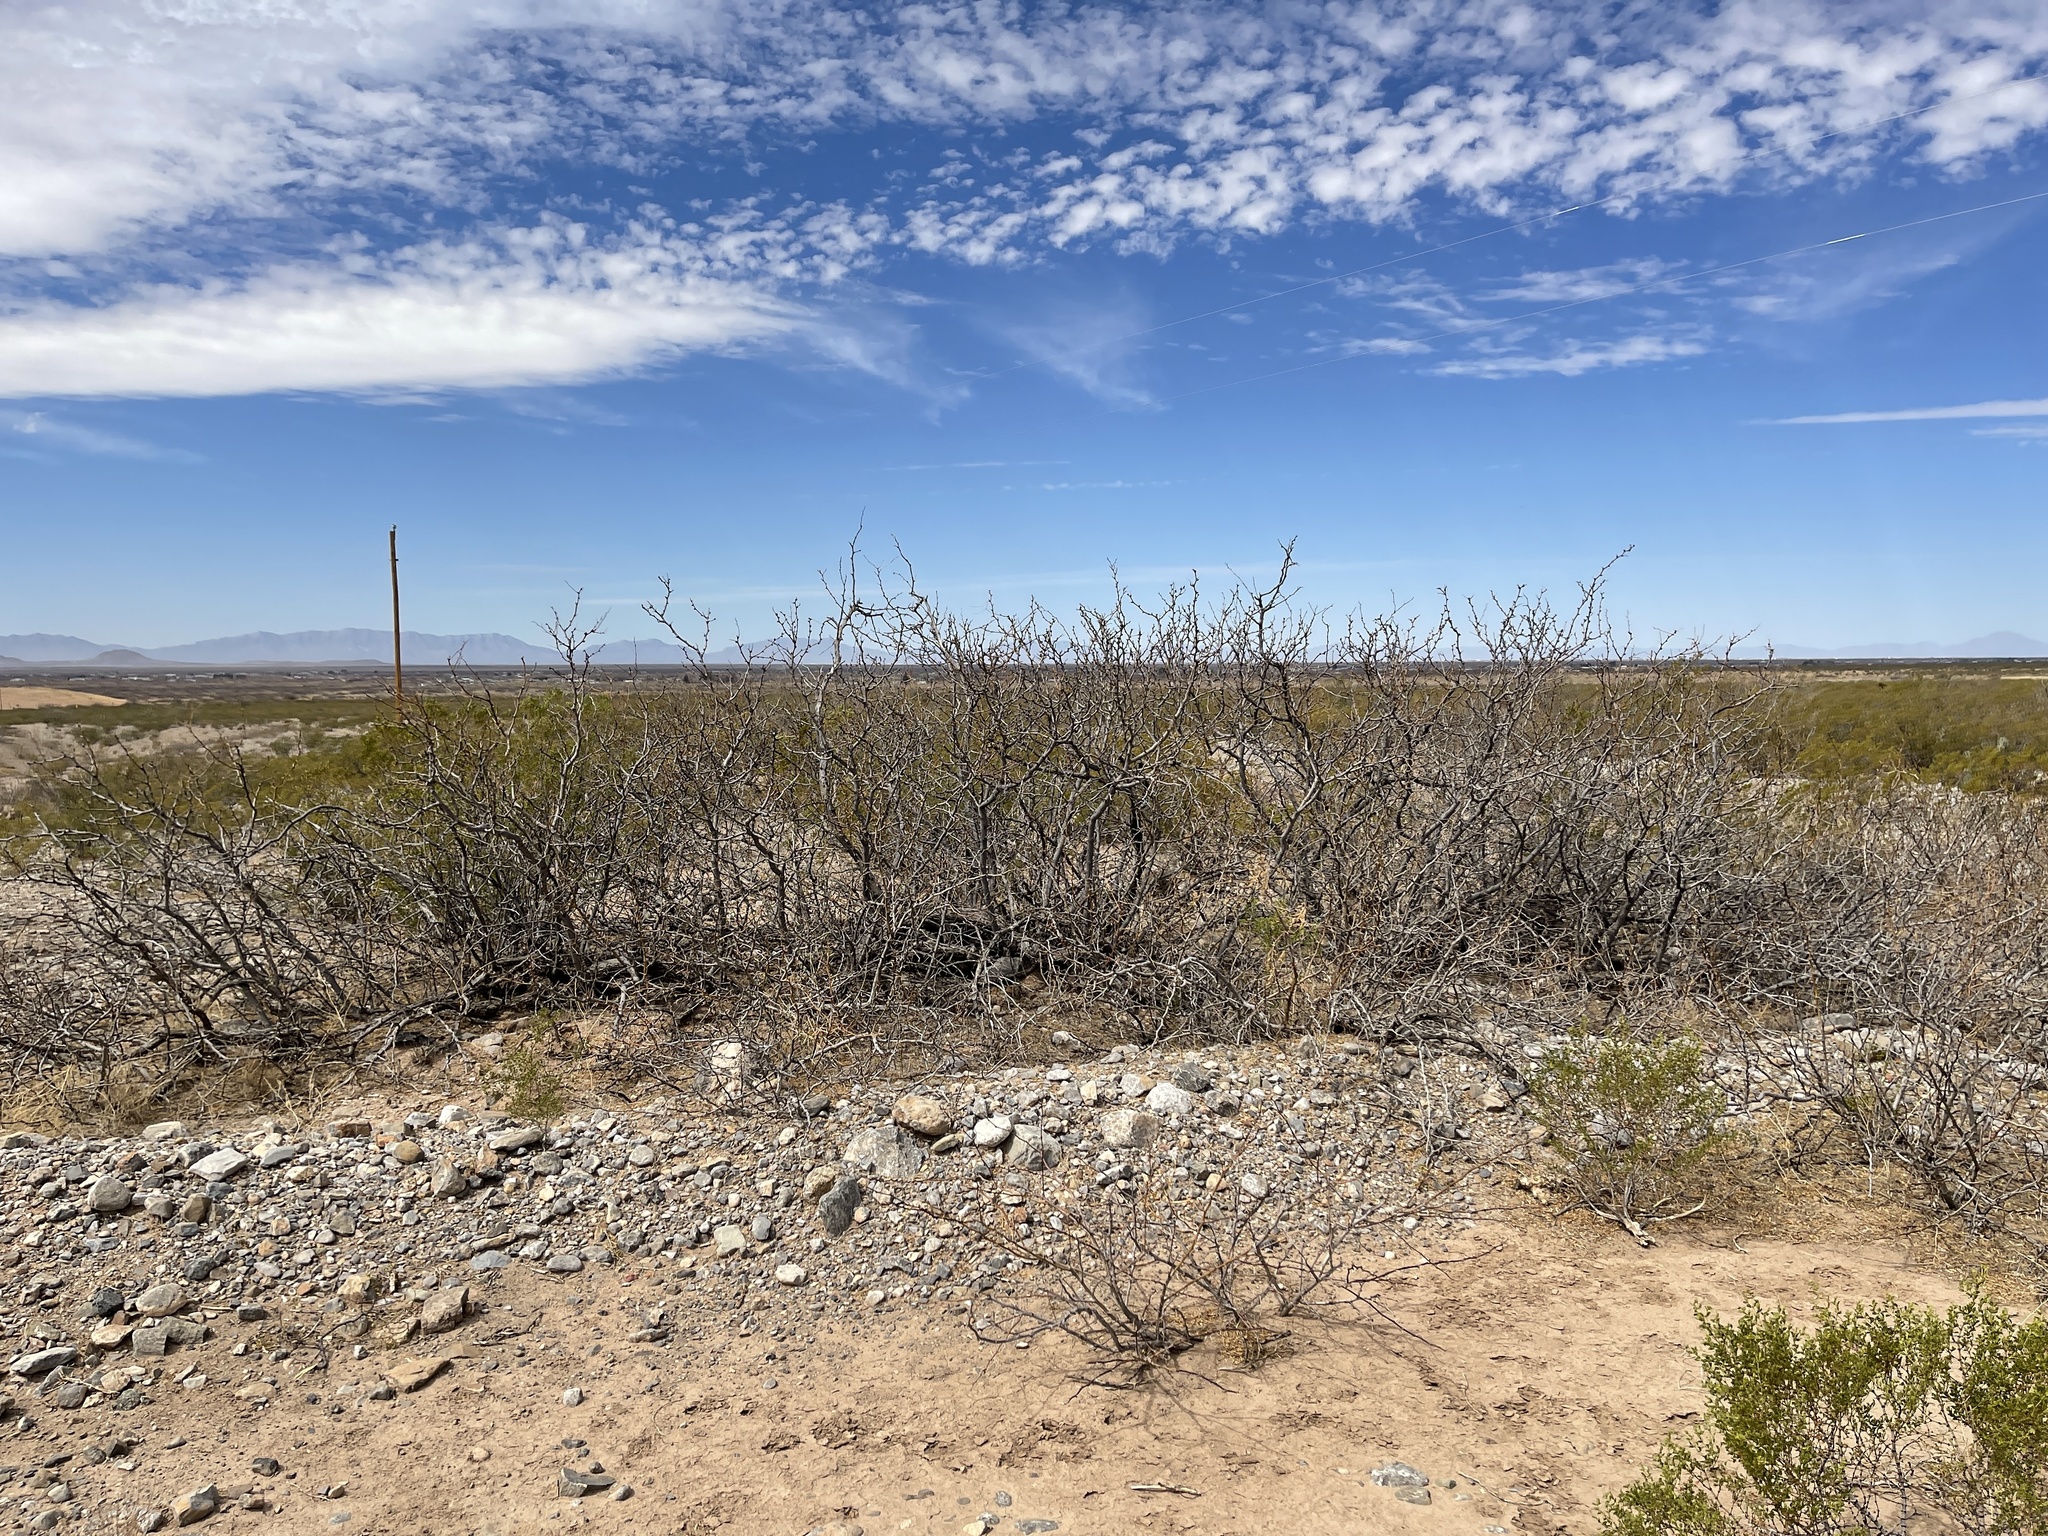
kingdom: Plantae
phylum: Tracheophyta
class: Magnoliopsida
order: Fabales
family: Fabaceae
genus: Prosopis
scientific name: Prosopis glandulosa
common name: Honey mesquite
